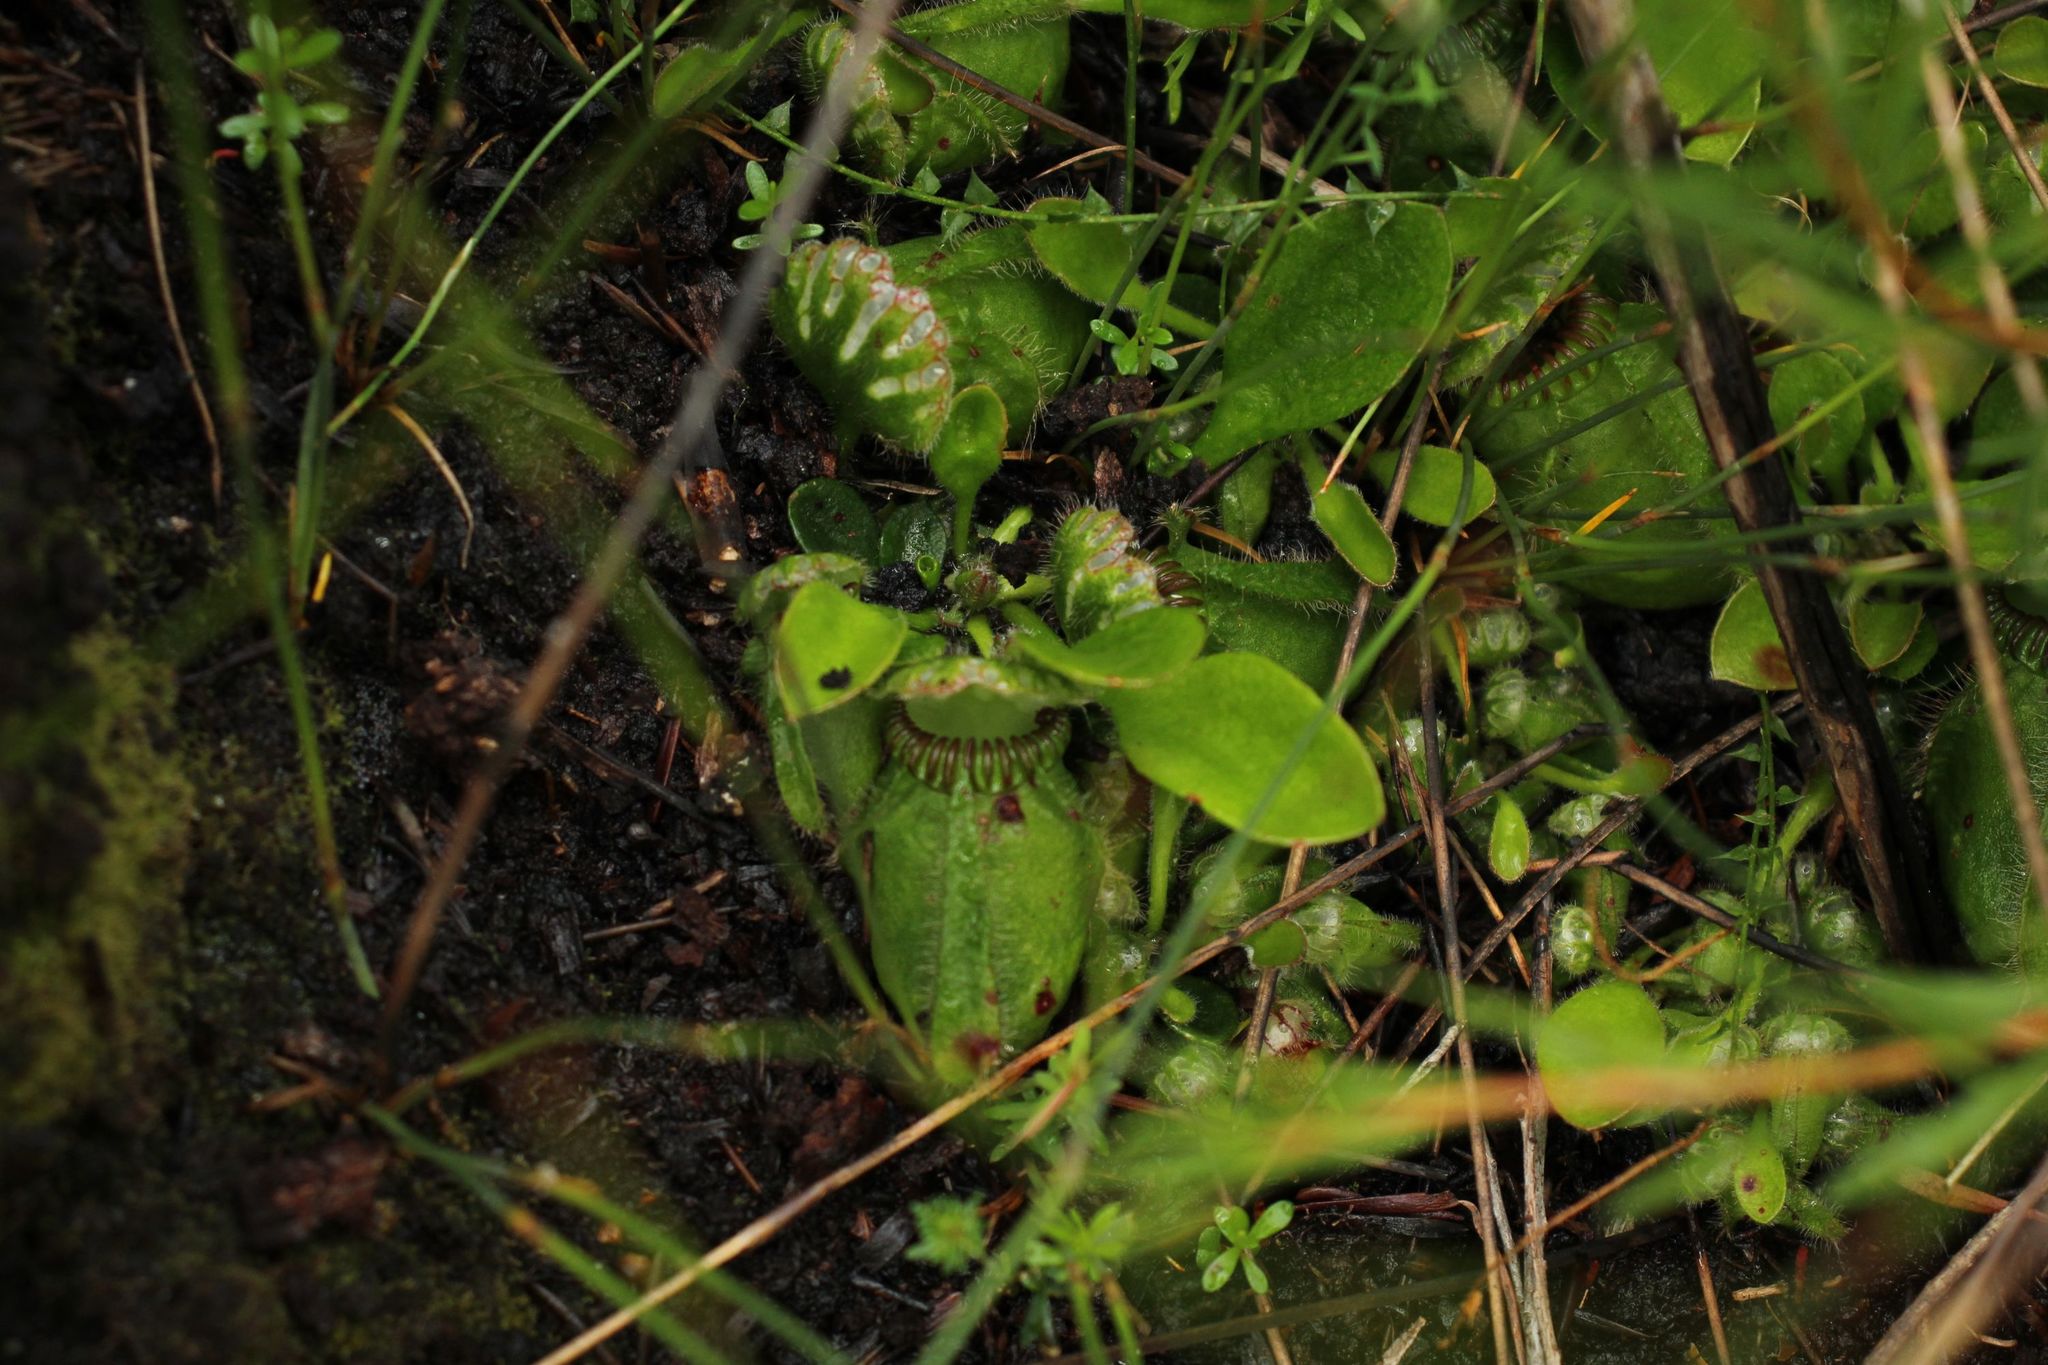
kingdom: Plantae
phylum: Tracheophyta
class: Magnoliopsida
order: Oxalidales
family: Cephalotaceae
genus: Cephalotus
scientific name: Cephalotus follicularis
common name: Australian pitcher plant
